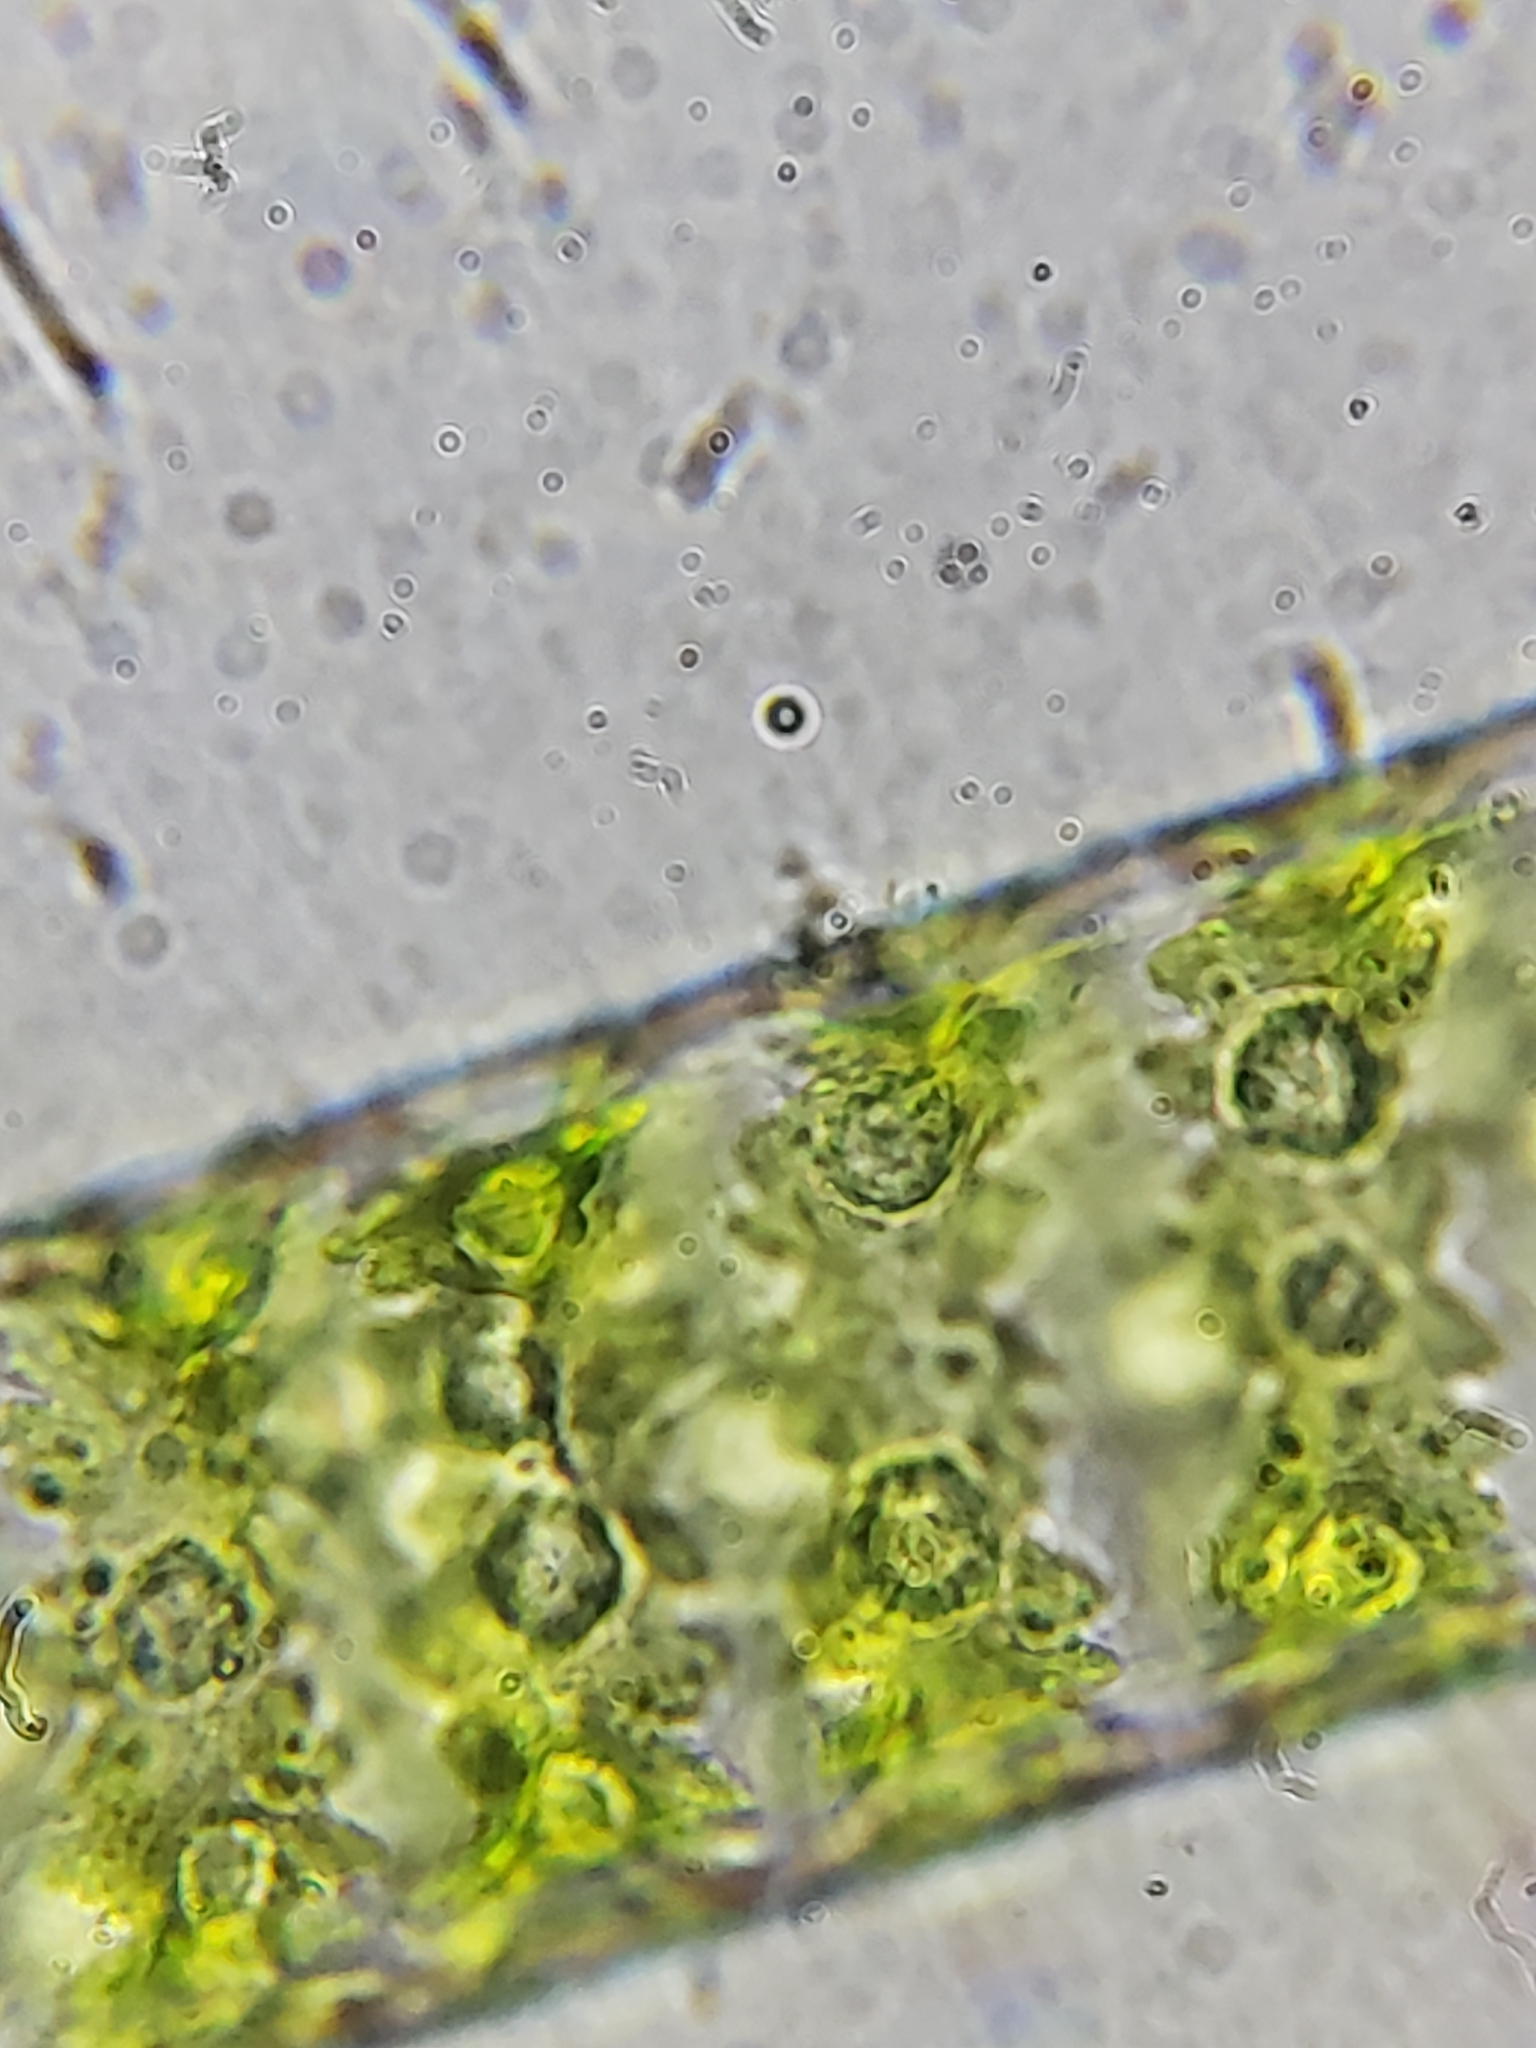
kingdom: Plantae
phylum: Charophyta
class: Zygnematophyceae
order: Zygnematales
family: Zygnemataceae
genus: Spirogyra
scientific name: Spirogyra
